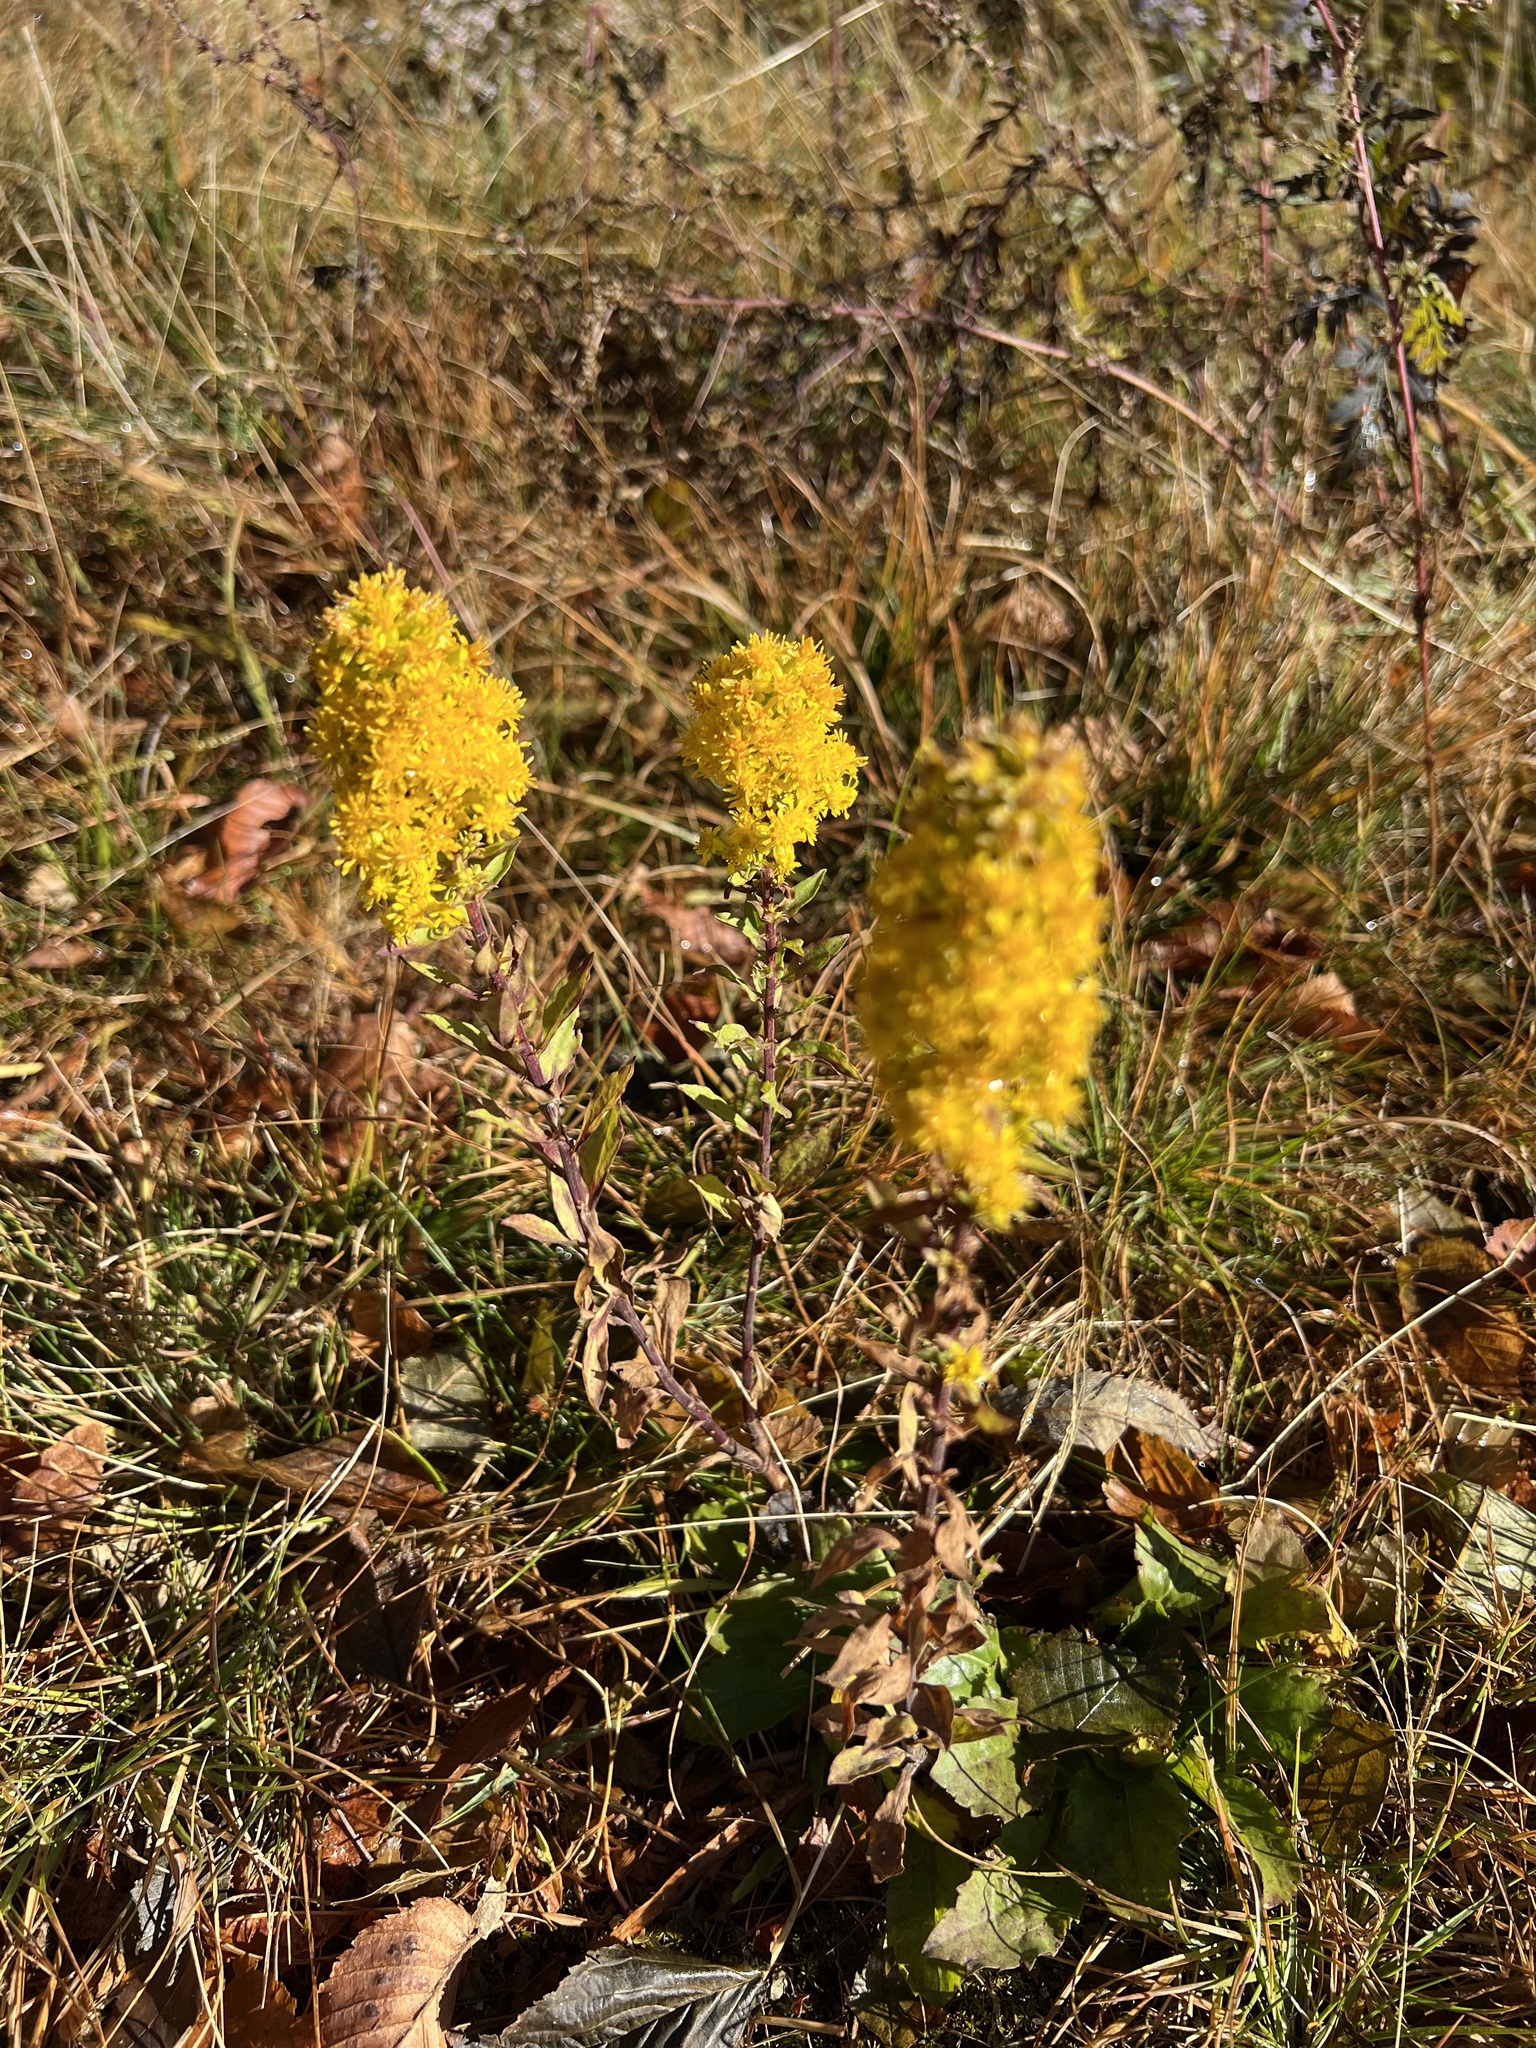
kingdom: Plantae
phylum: Tracheophyta
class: Magnoliopsida
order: Asterales
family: Asteraceae
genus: Solidago
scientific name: Solidago puberula
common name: Downy goldenrod
